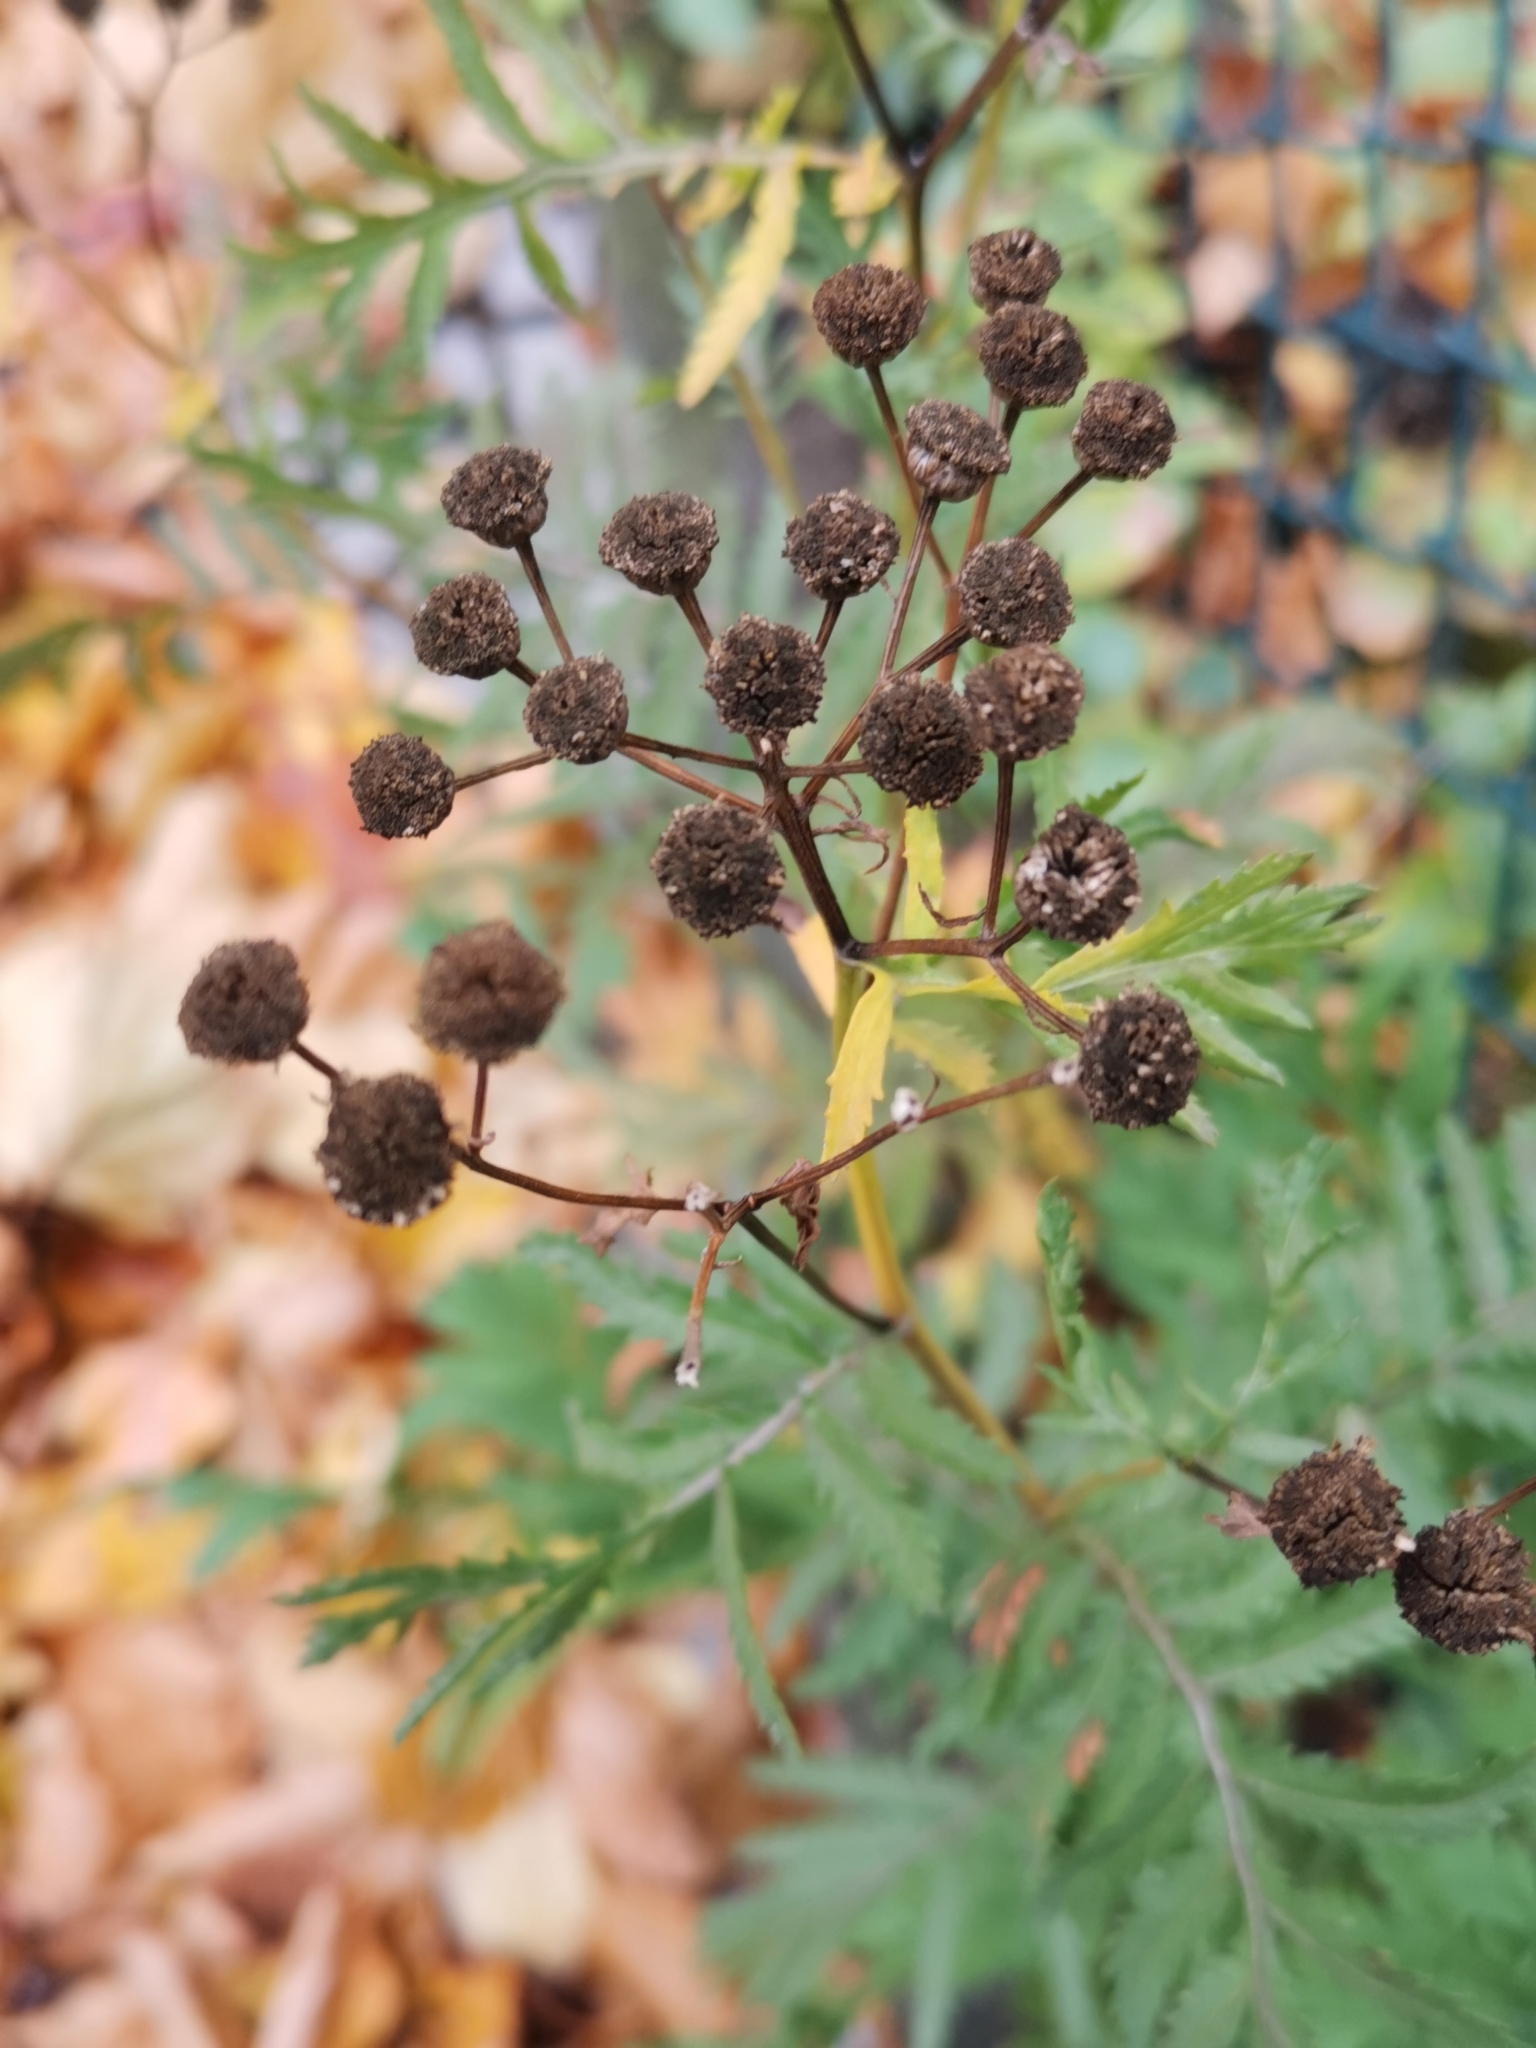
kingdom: Plantae
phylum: Tracheophyta
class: Magnoliopsida
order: Asterales
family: Asteraceae
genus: Tanacetum
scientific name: Tanacetum vulgare
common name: Common tansy
